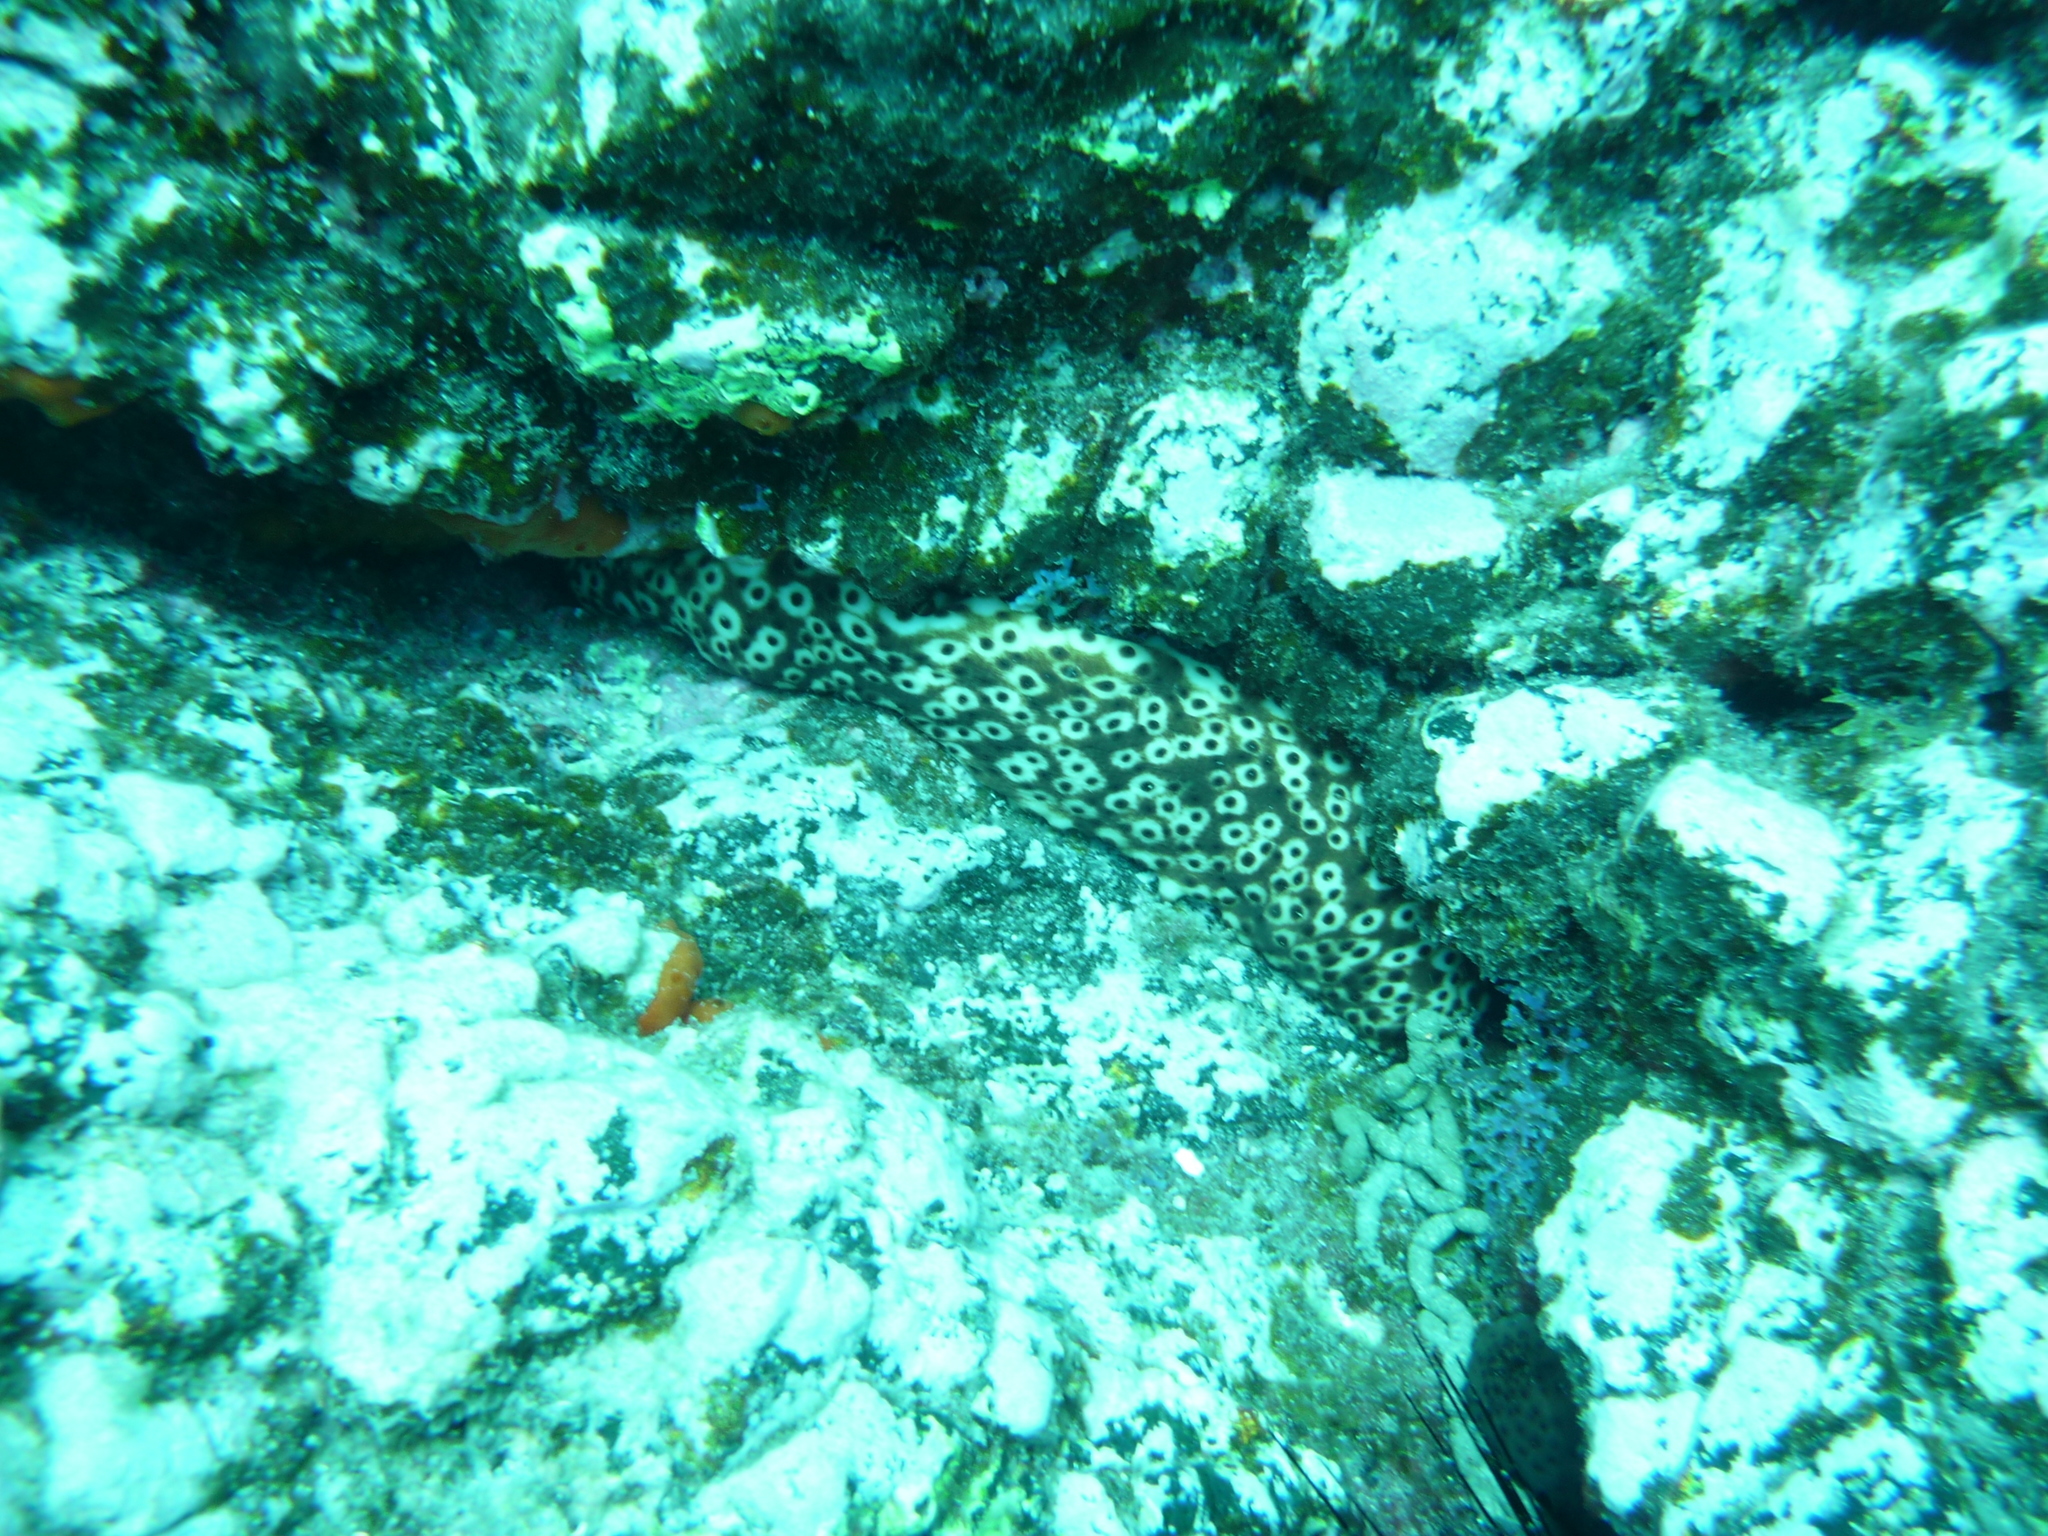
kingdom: Animalia
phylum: Echinodermata
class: Holothuroidea
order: Holothuriida
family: Holothuriidae
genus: Holothuria
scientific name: Holothuria sanctori
